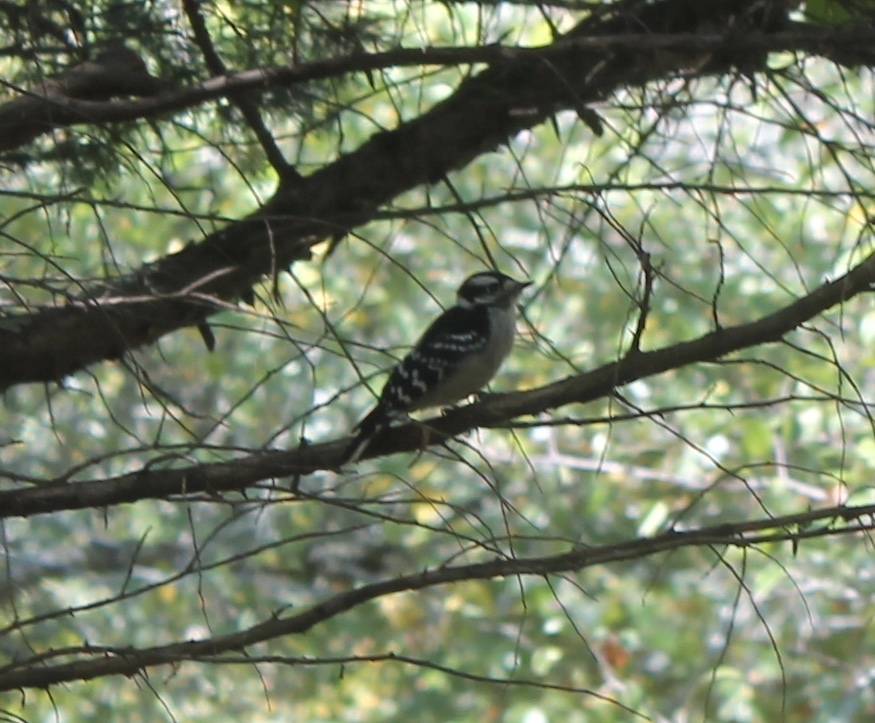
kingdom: Animalia
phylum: Chordata
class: Aves
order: Piciformes
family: Picidae
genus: Dryobates
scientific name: Dryobates pubescens
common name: Downy woodpecker
